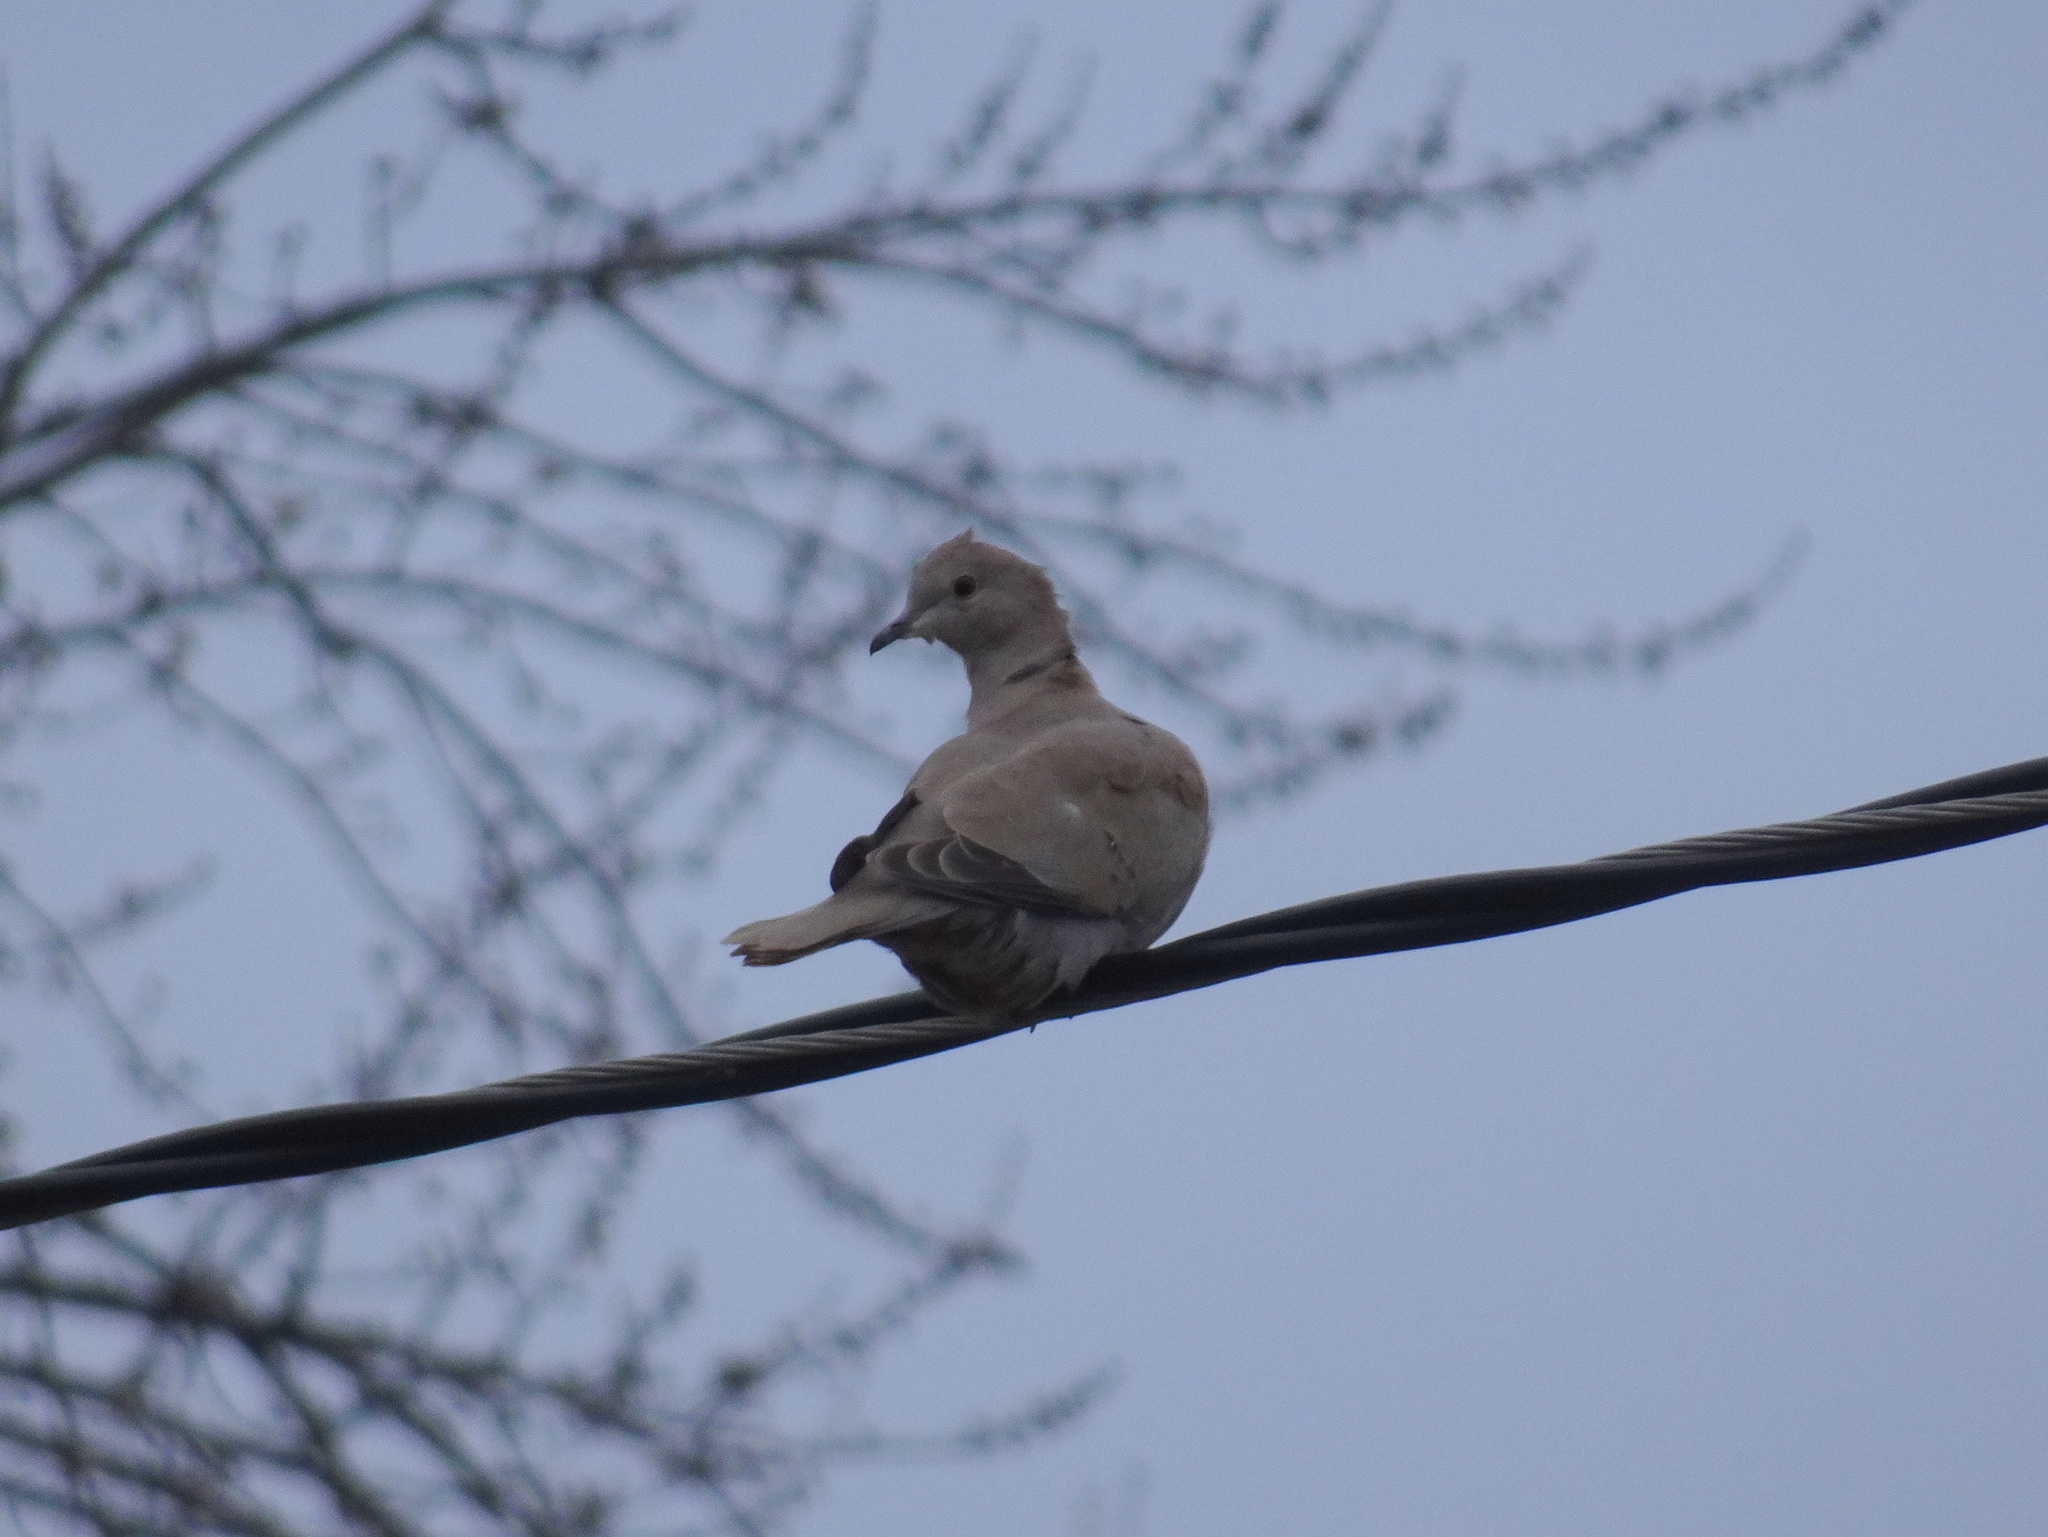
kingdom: Animalia
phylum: Chordata
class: Aves
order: Columbiformes
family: Columbidae
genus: Streptopelia
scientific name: Streptopelia decaocto
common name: Eurasian collared dove
